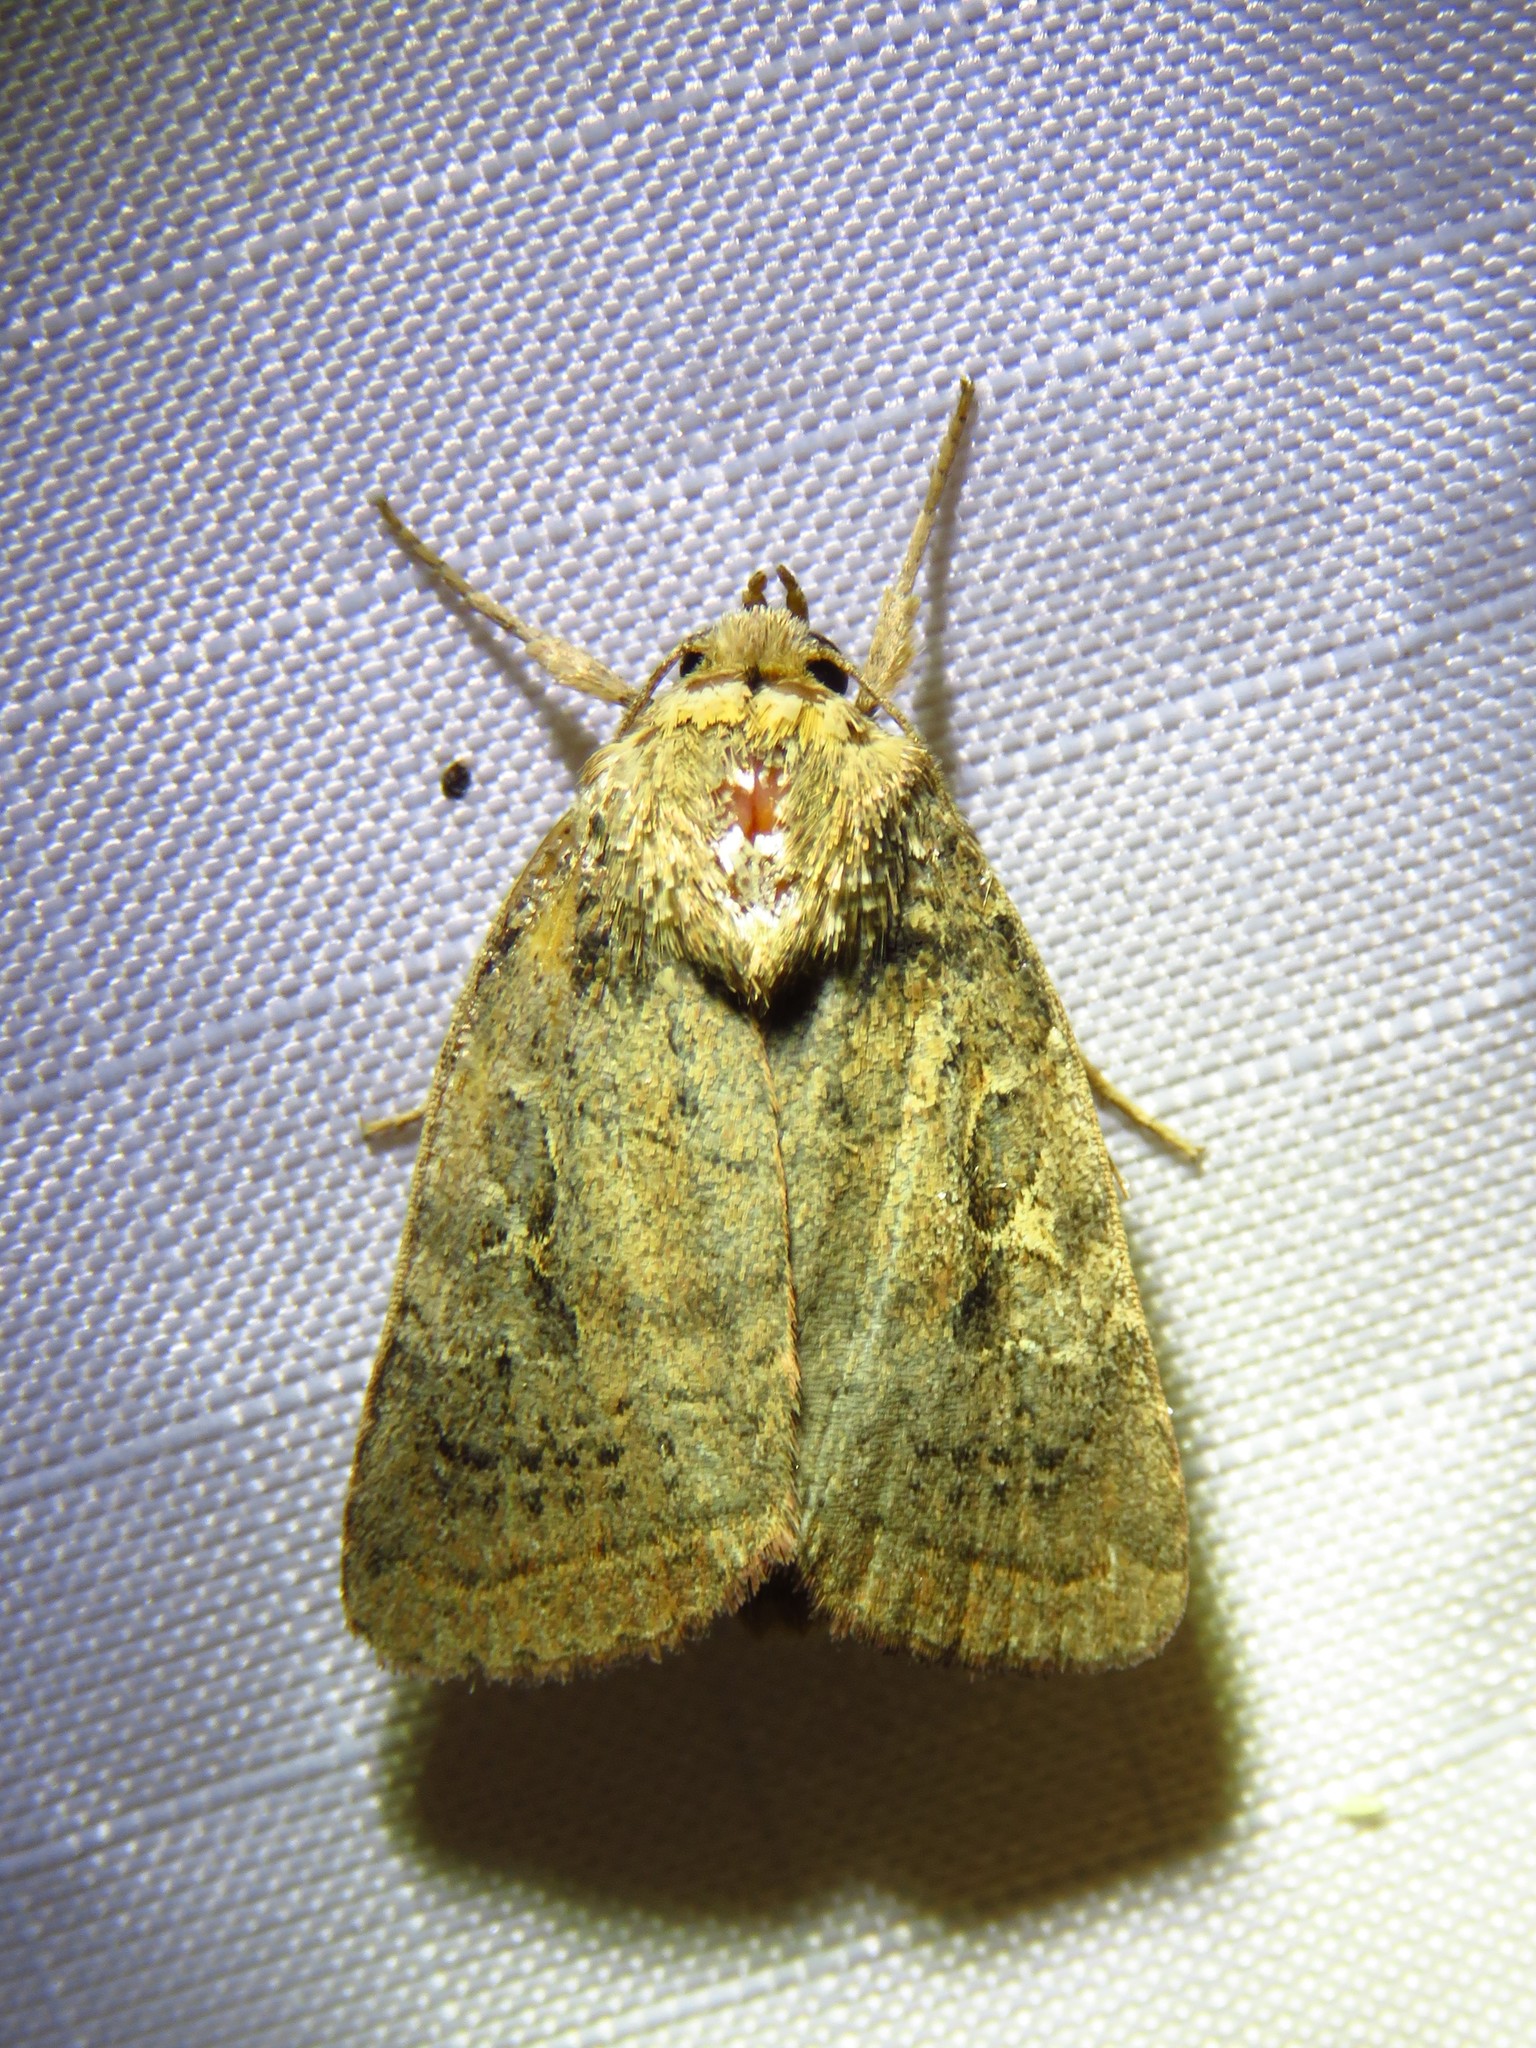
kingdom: Animalia
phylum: Arthropoda
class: Insecta
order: Lepidoptera
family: Noctuidae
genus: Orthodes
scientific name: Orthodes majuscula
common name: Rustic quaker
